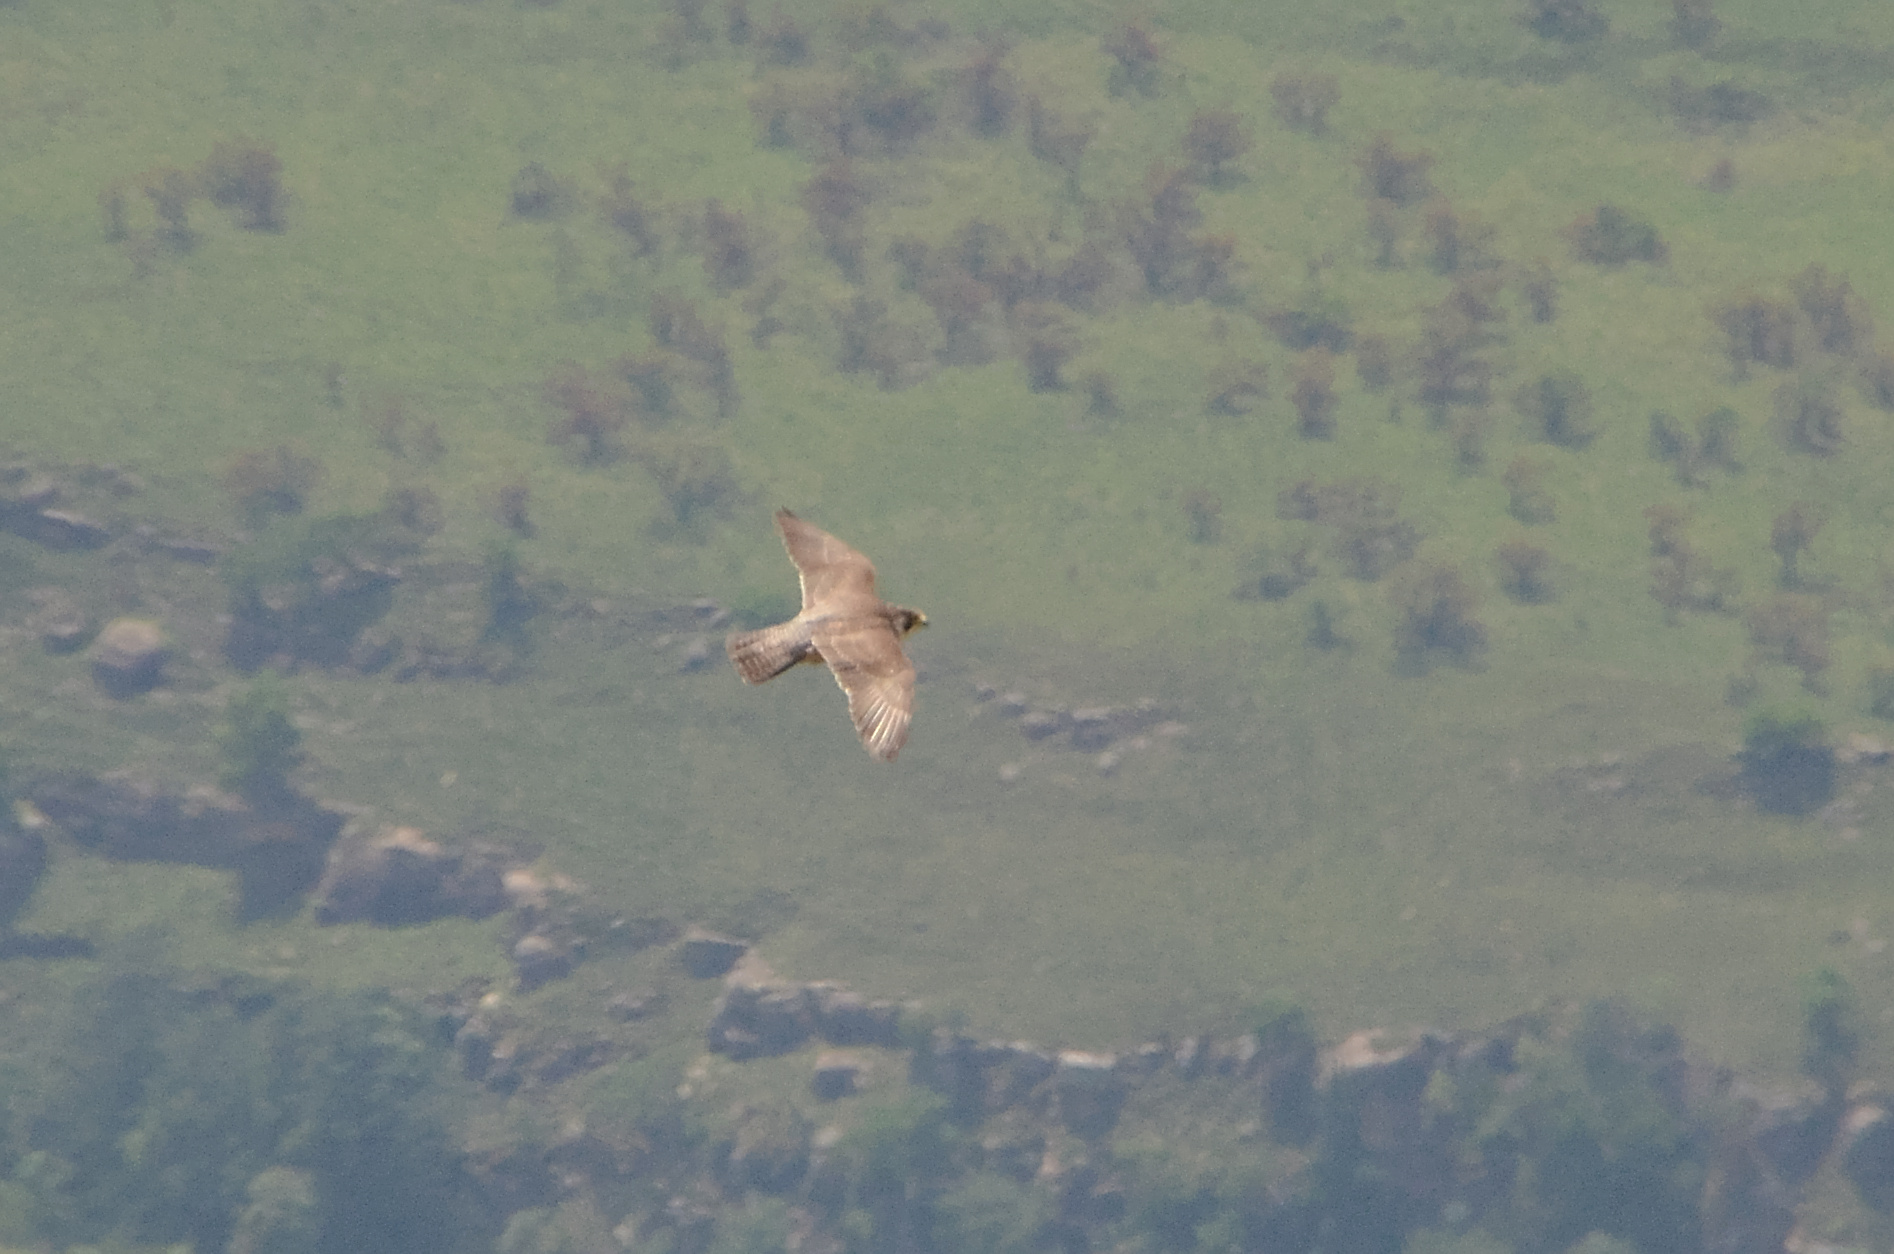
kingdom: Animalia
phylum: Chordata
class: Aves
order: Falconiformes
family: Falconidae
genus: Falco
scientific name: Falco peregrinus
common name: Peregrine falcon
